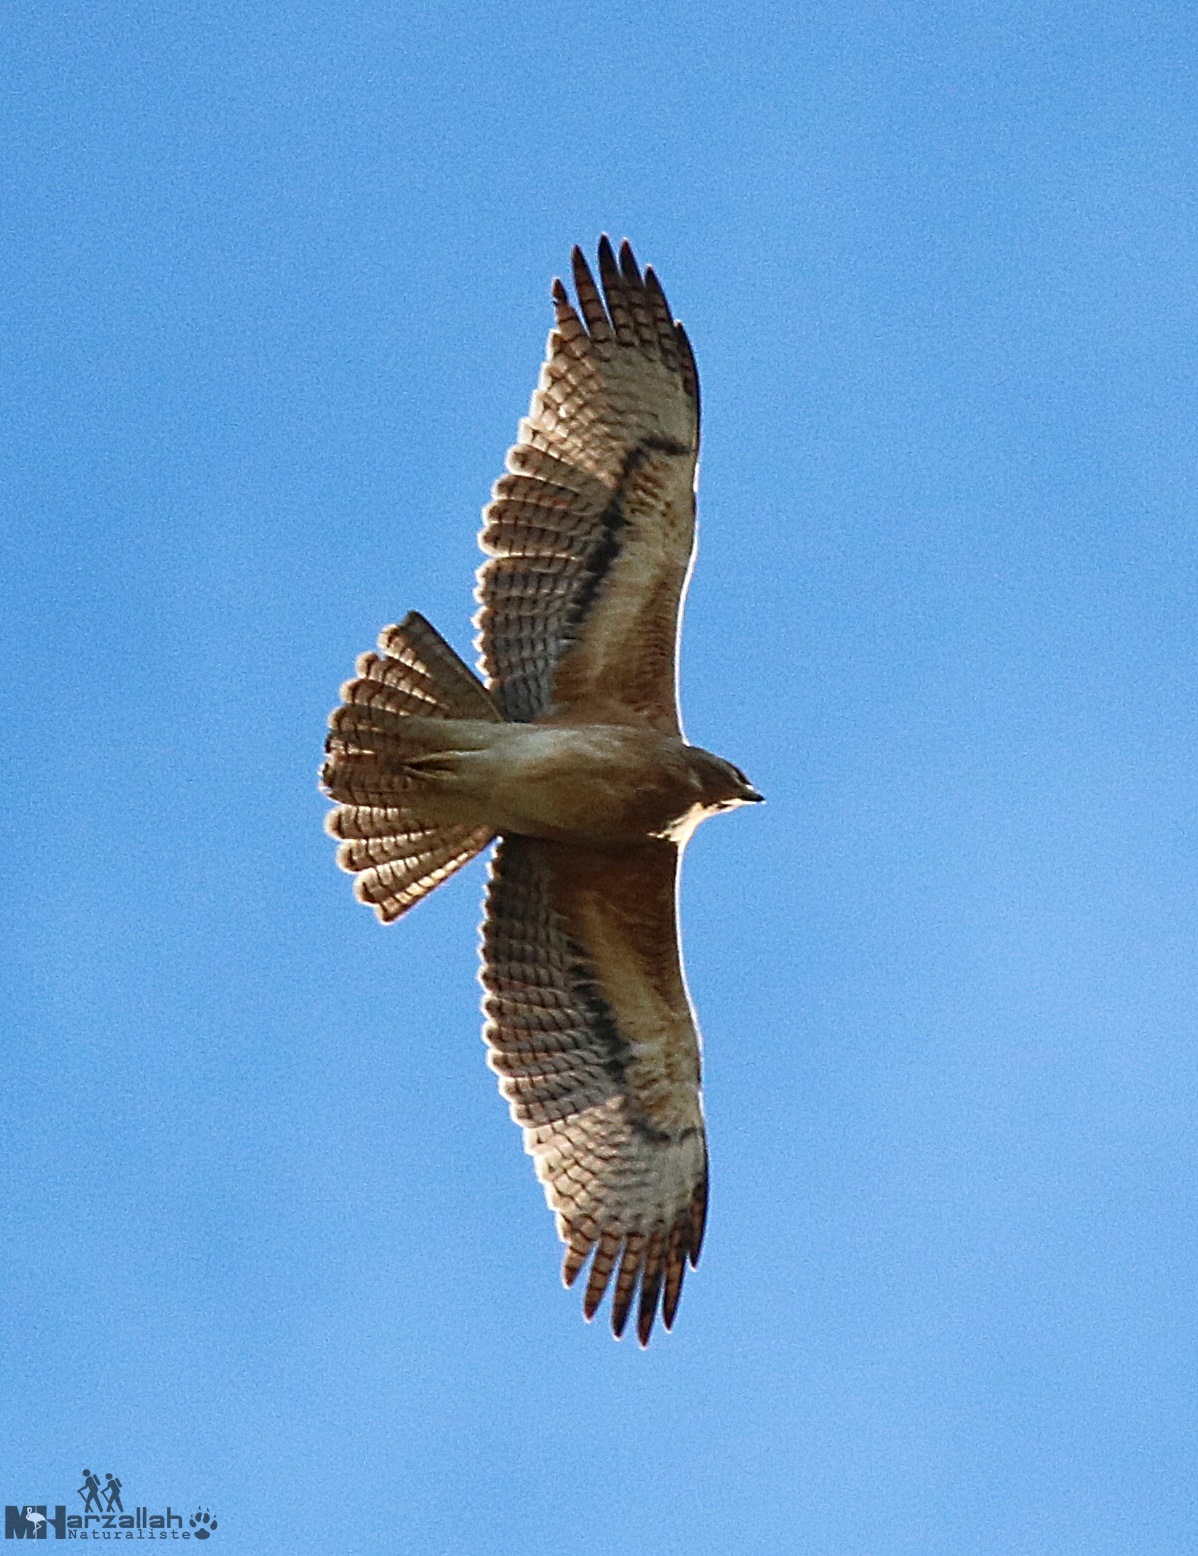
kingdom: Animalia
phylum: Chordata
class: Aves
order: Accipitriformes
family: Accipitridae
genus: Aquila
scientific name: Aquila fasciata
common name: Bonelli's eagle
